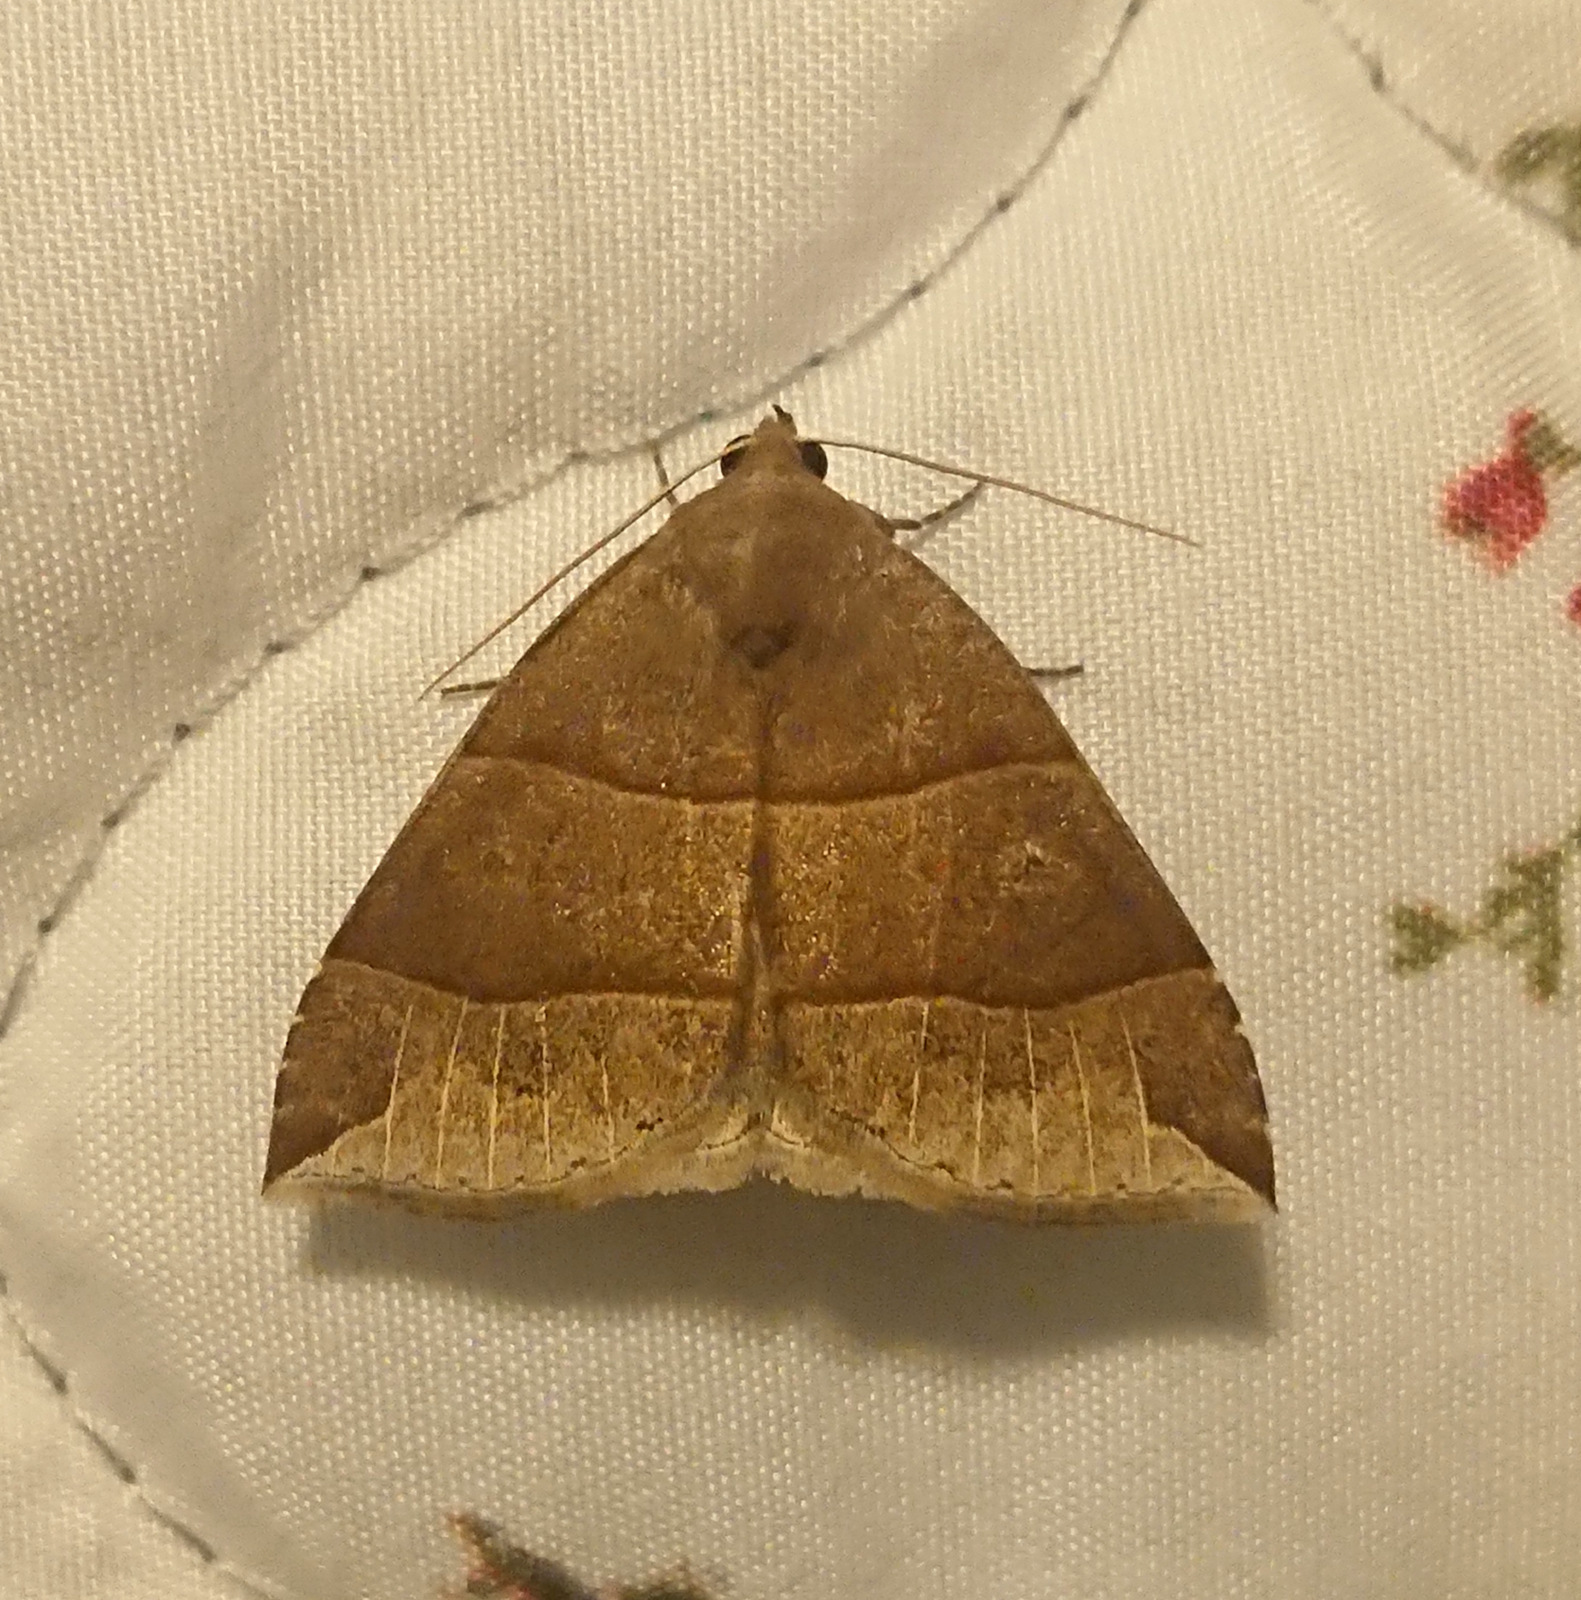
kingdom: Animalia
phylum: Arthropoda
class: Insecta
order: Lepidoptera
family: Erebidae
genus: Parallelia
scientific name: Parallelia bistriaris
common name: Maple looper moth
